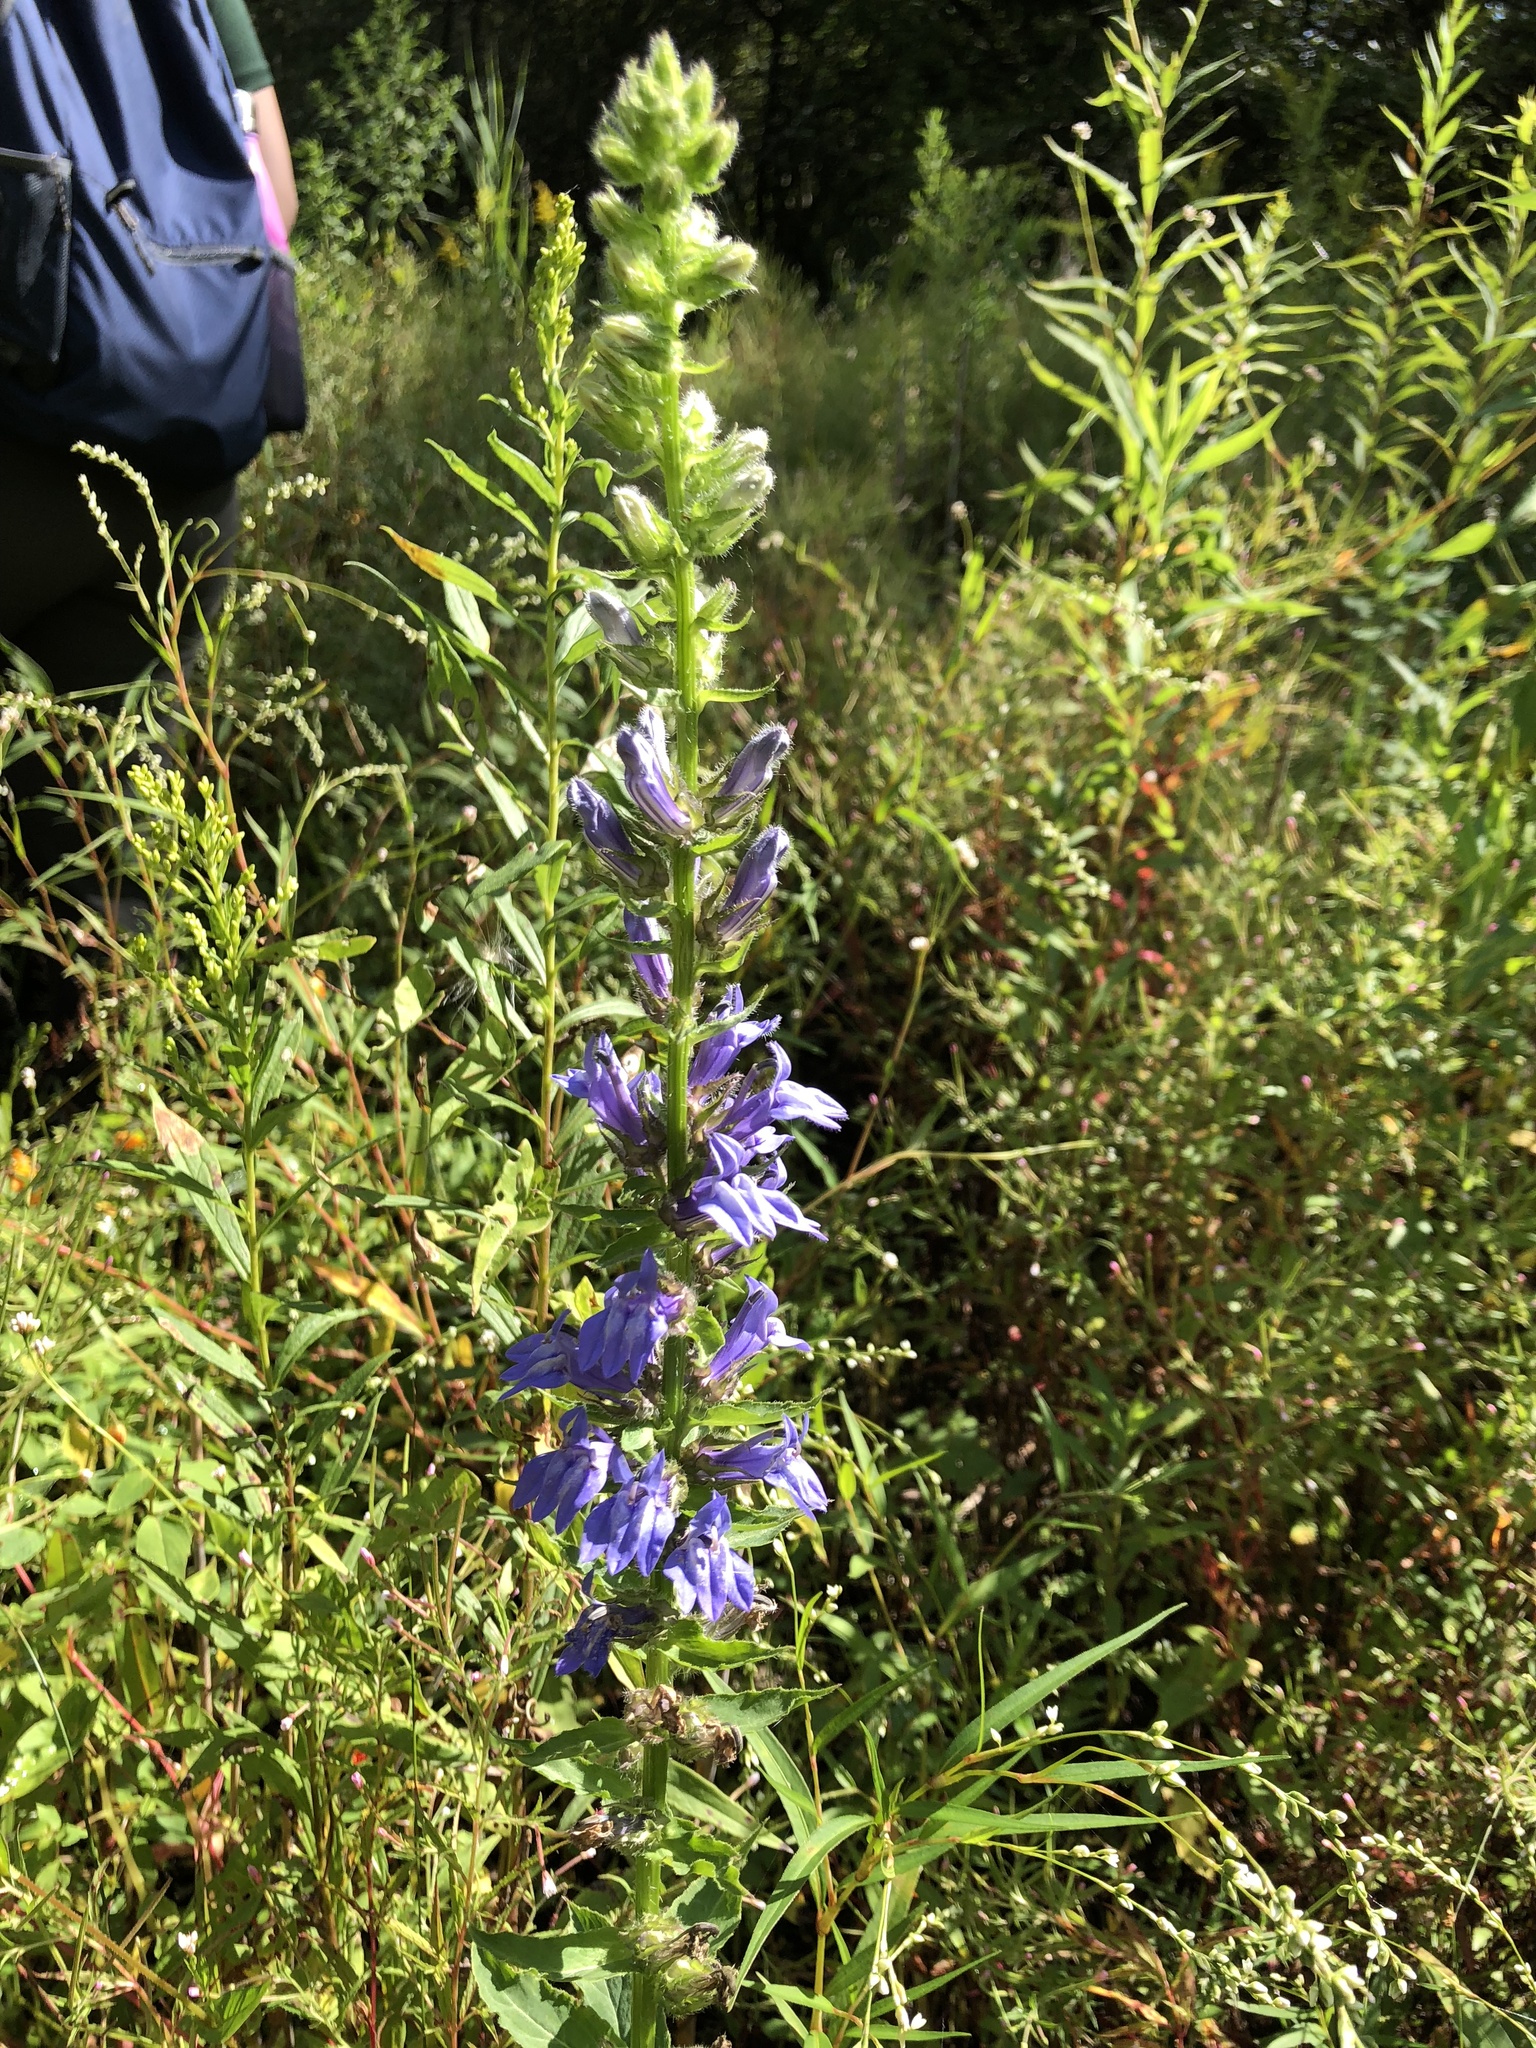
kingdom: Plantae
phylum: Tracheophyta
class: Magnoliopsida
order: Asterales
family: Campanulaceae
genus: Lobelia
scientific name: Lobelia siphilitica
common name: Great lobelia
